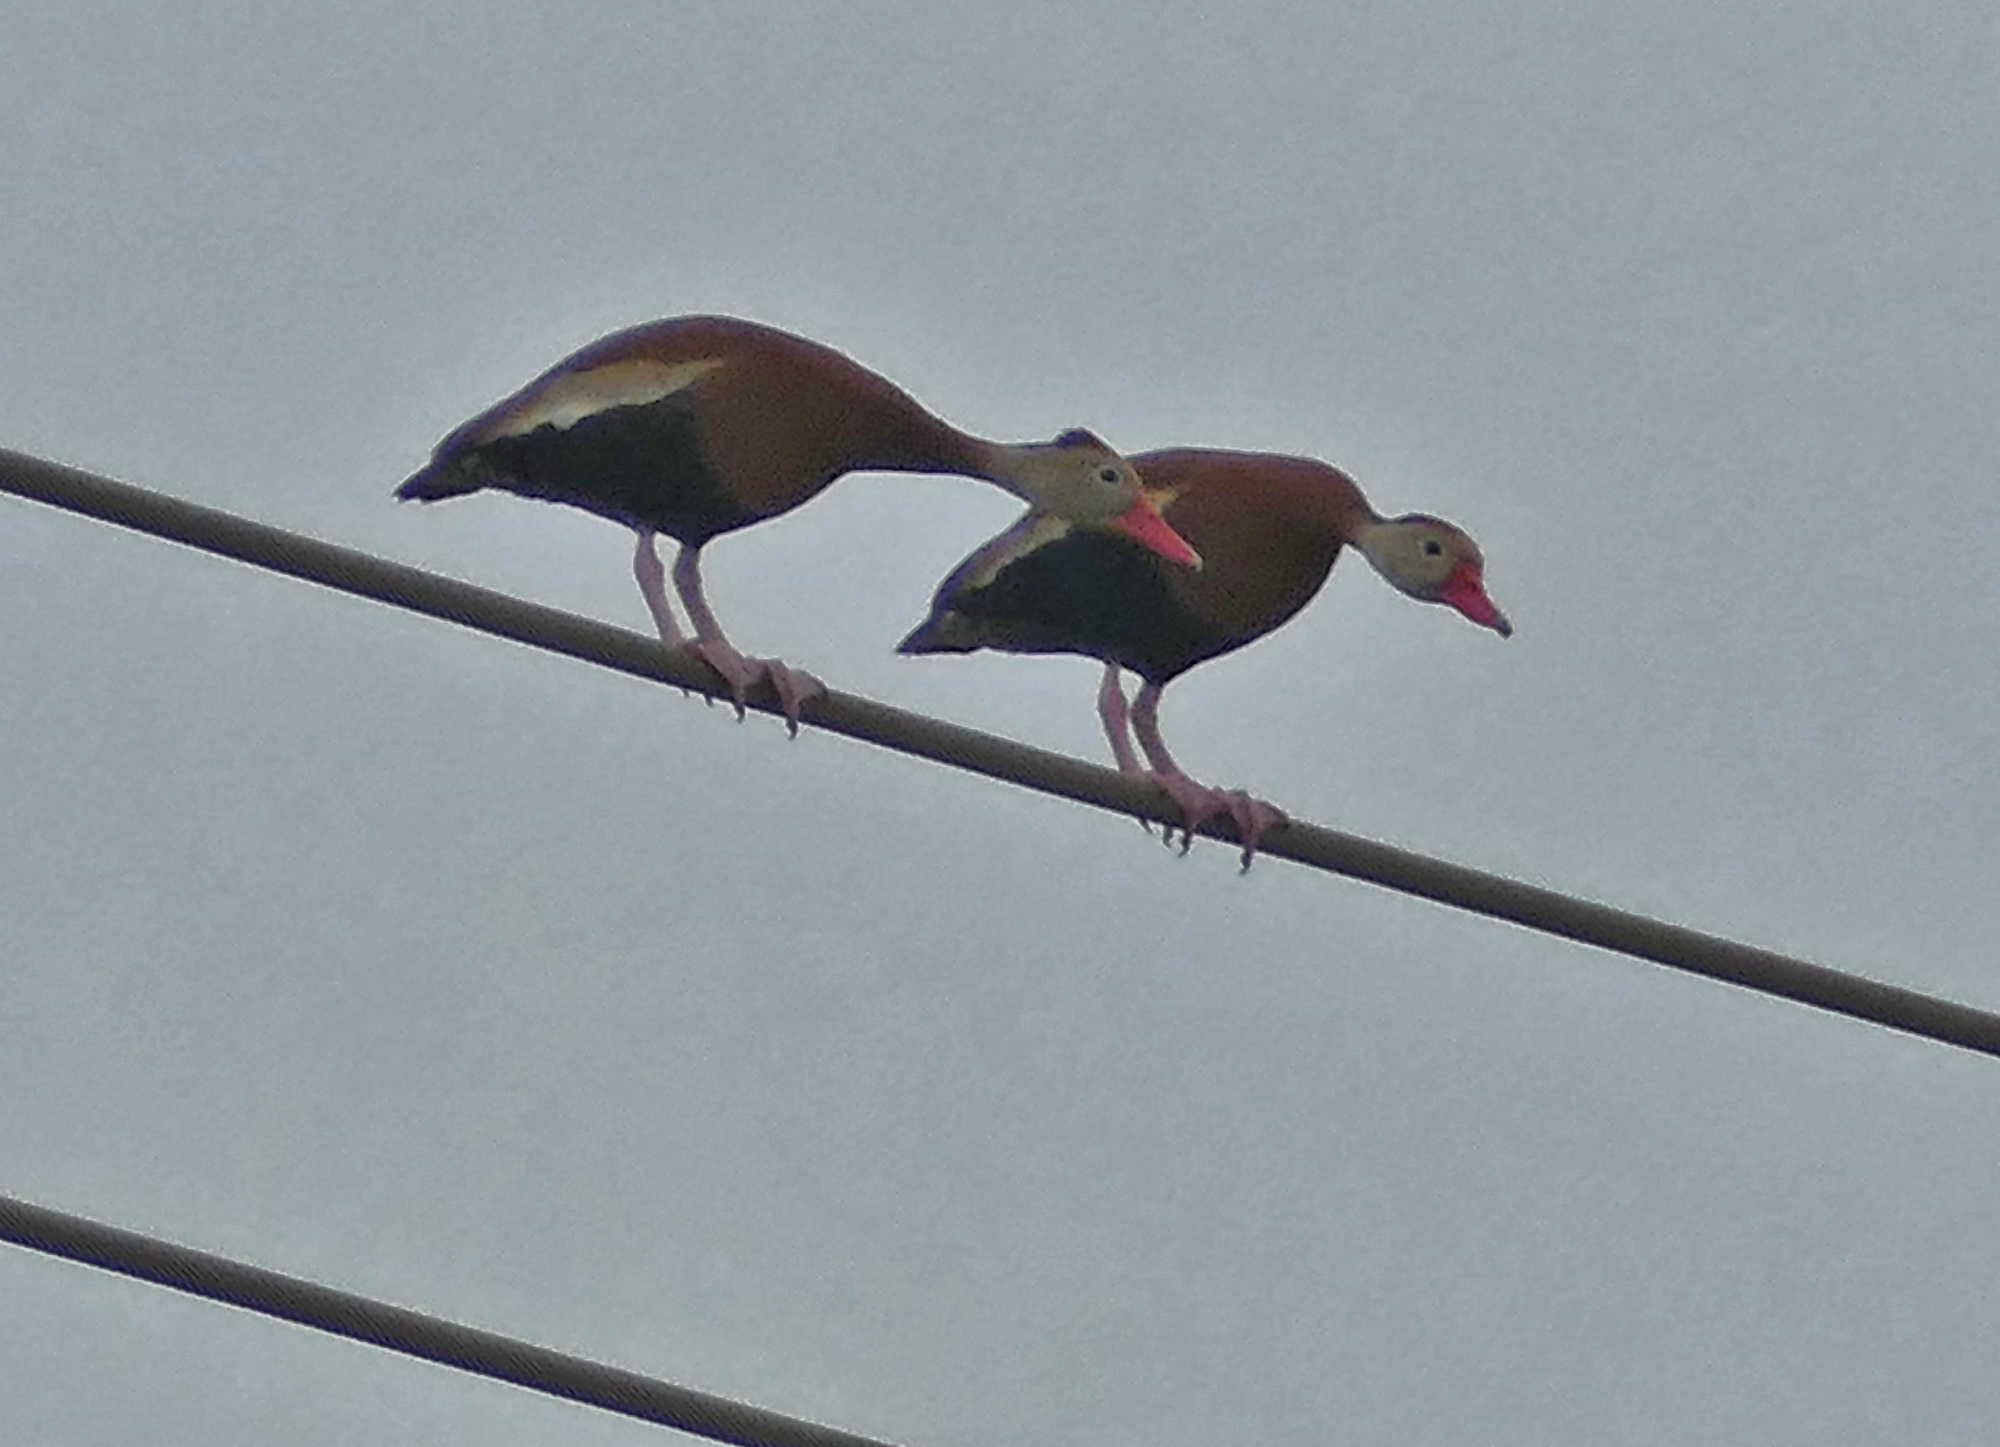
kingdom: Animalia
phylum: Chordata
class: Aves
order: Anseriformes
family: Anatidae
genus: Dendrocygna
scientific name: Dendrocygna autumnalis
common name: Black-bellied whistling duck
